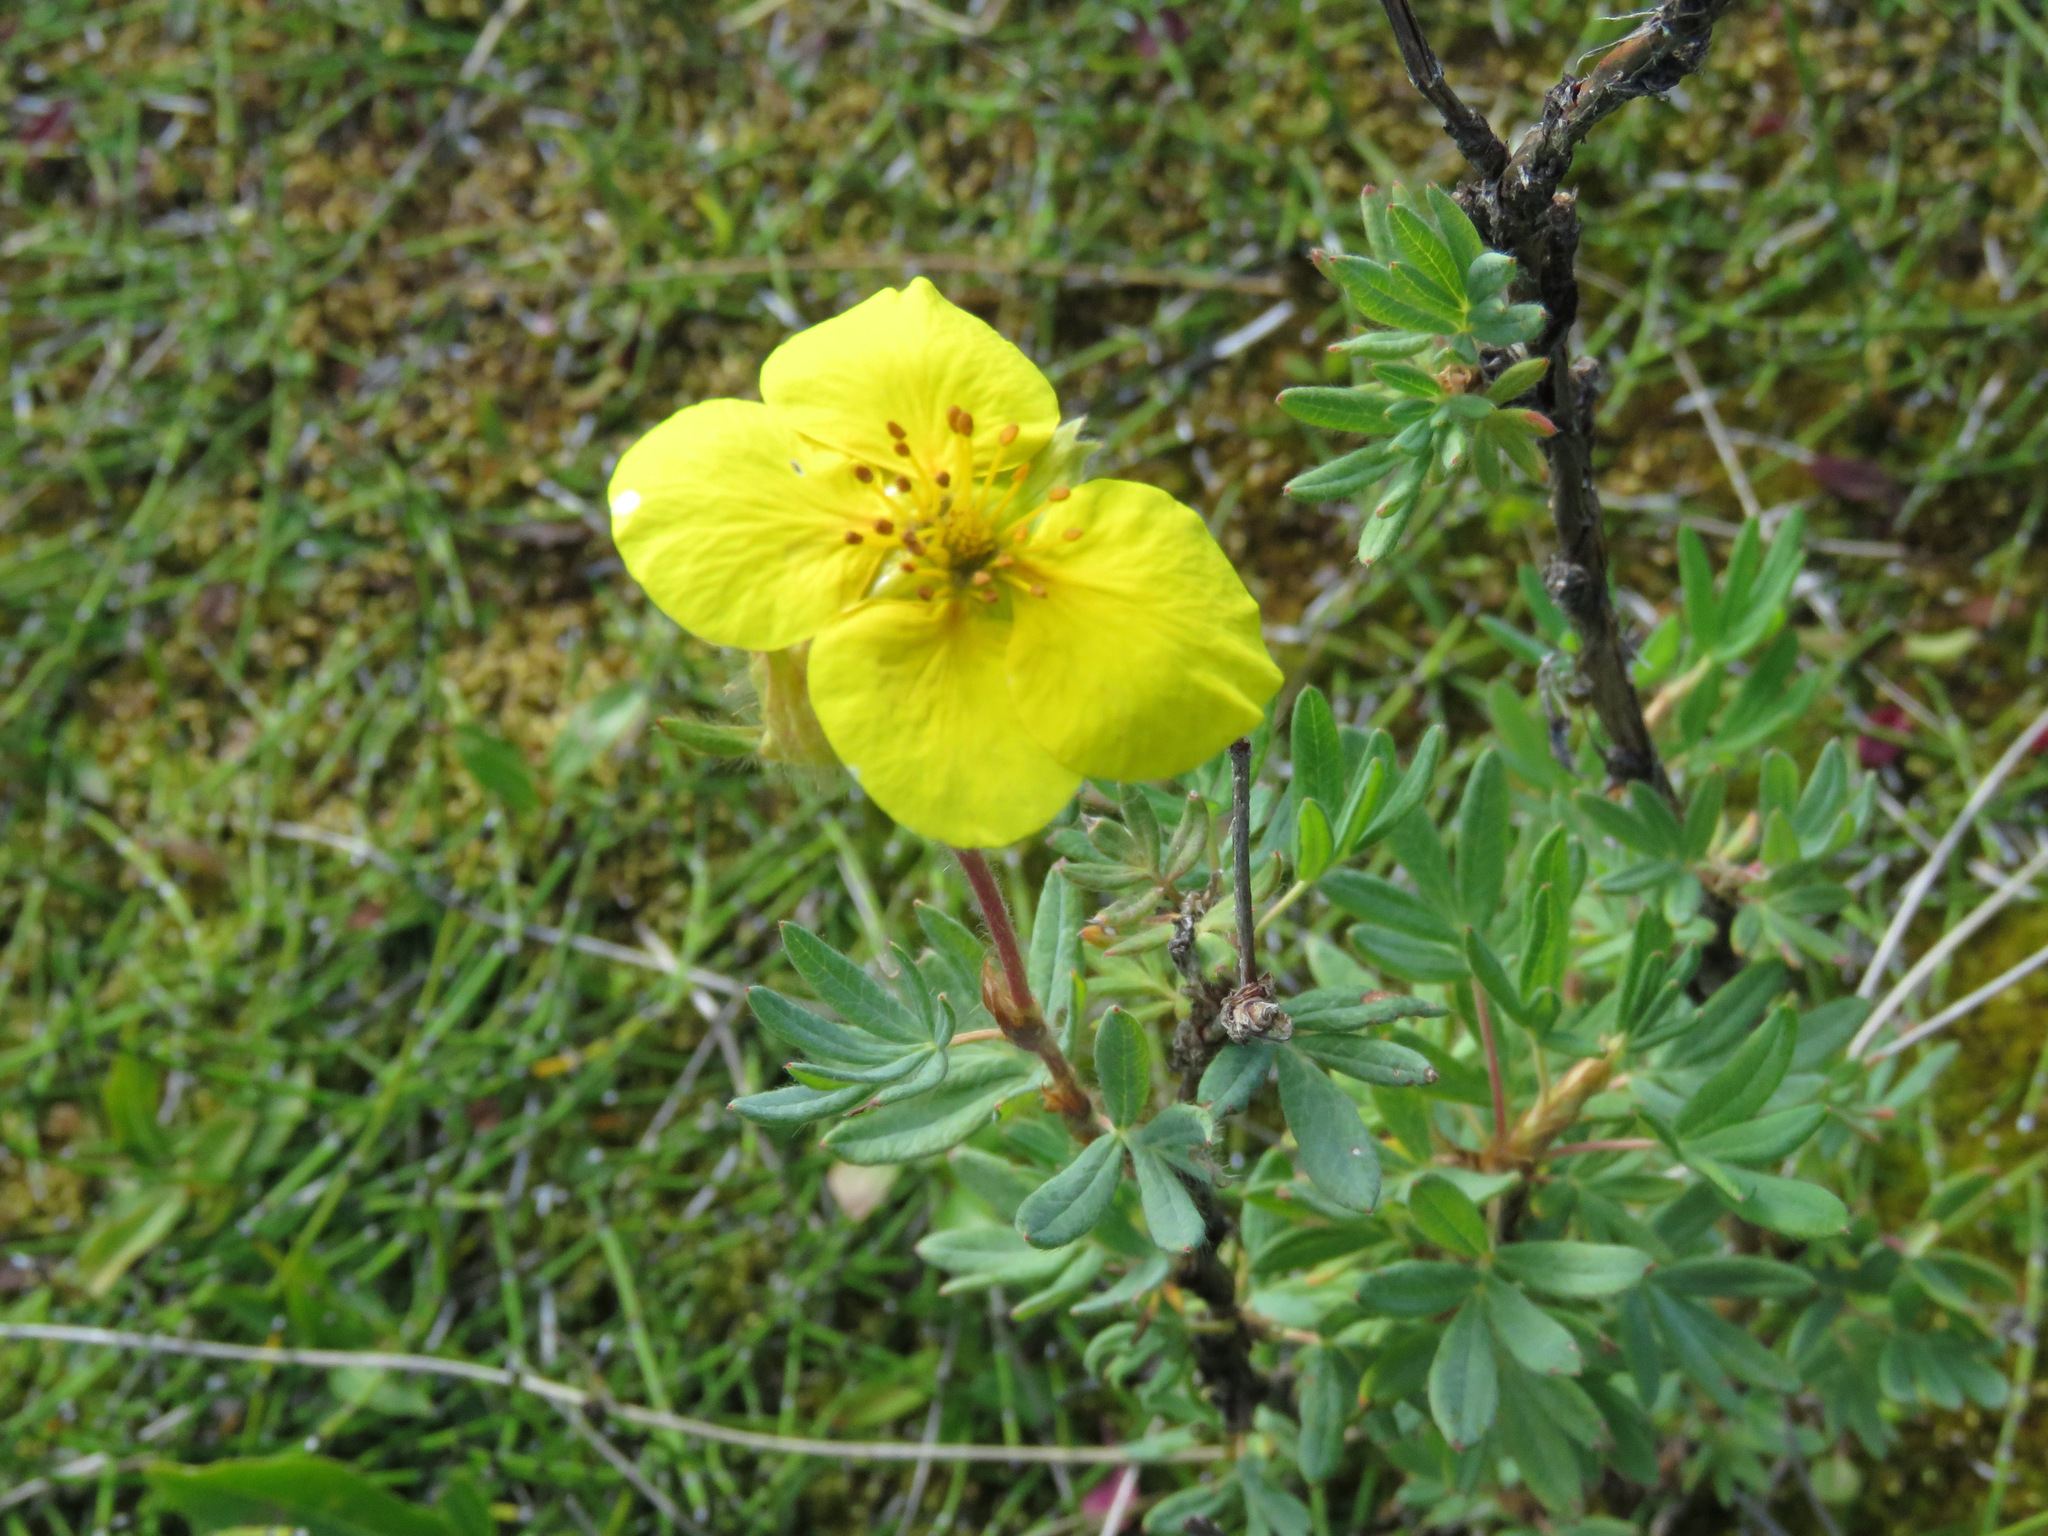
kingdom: Plantae
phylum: Tracheophyta
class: Magnoliopsida
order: Rosales
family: Rosaceae
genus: Dasiphora
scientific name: Dasiphora fruticosa
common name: Shrubby cinquefoil
